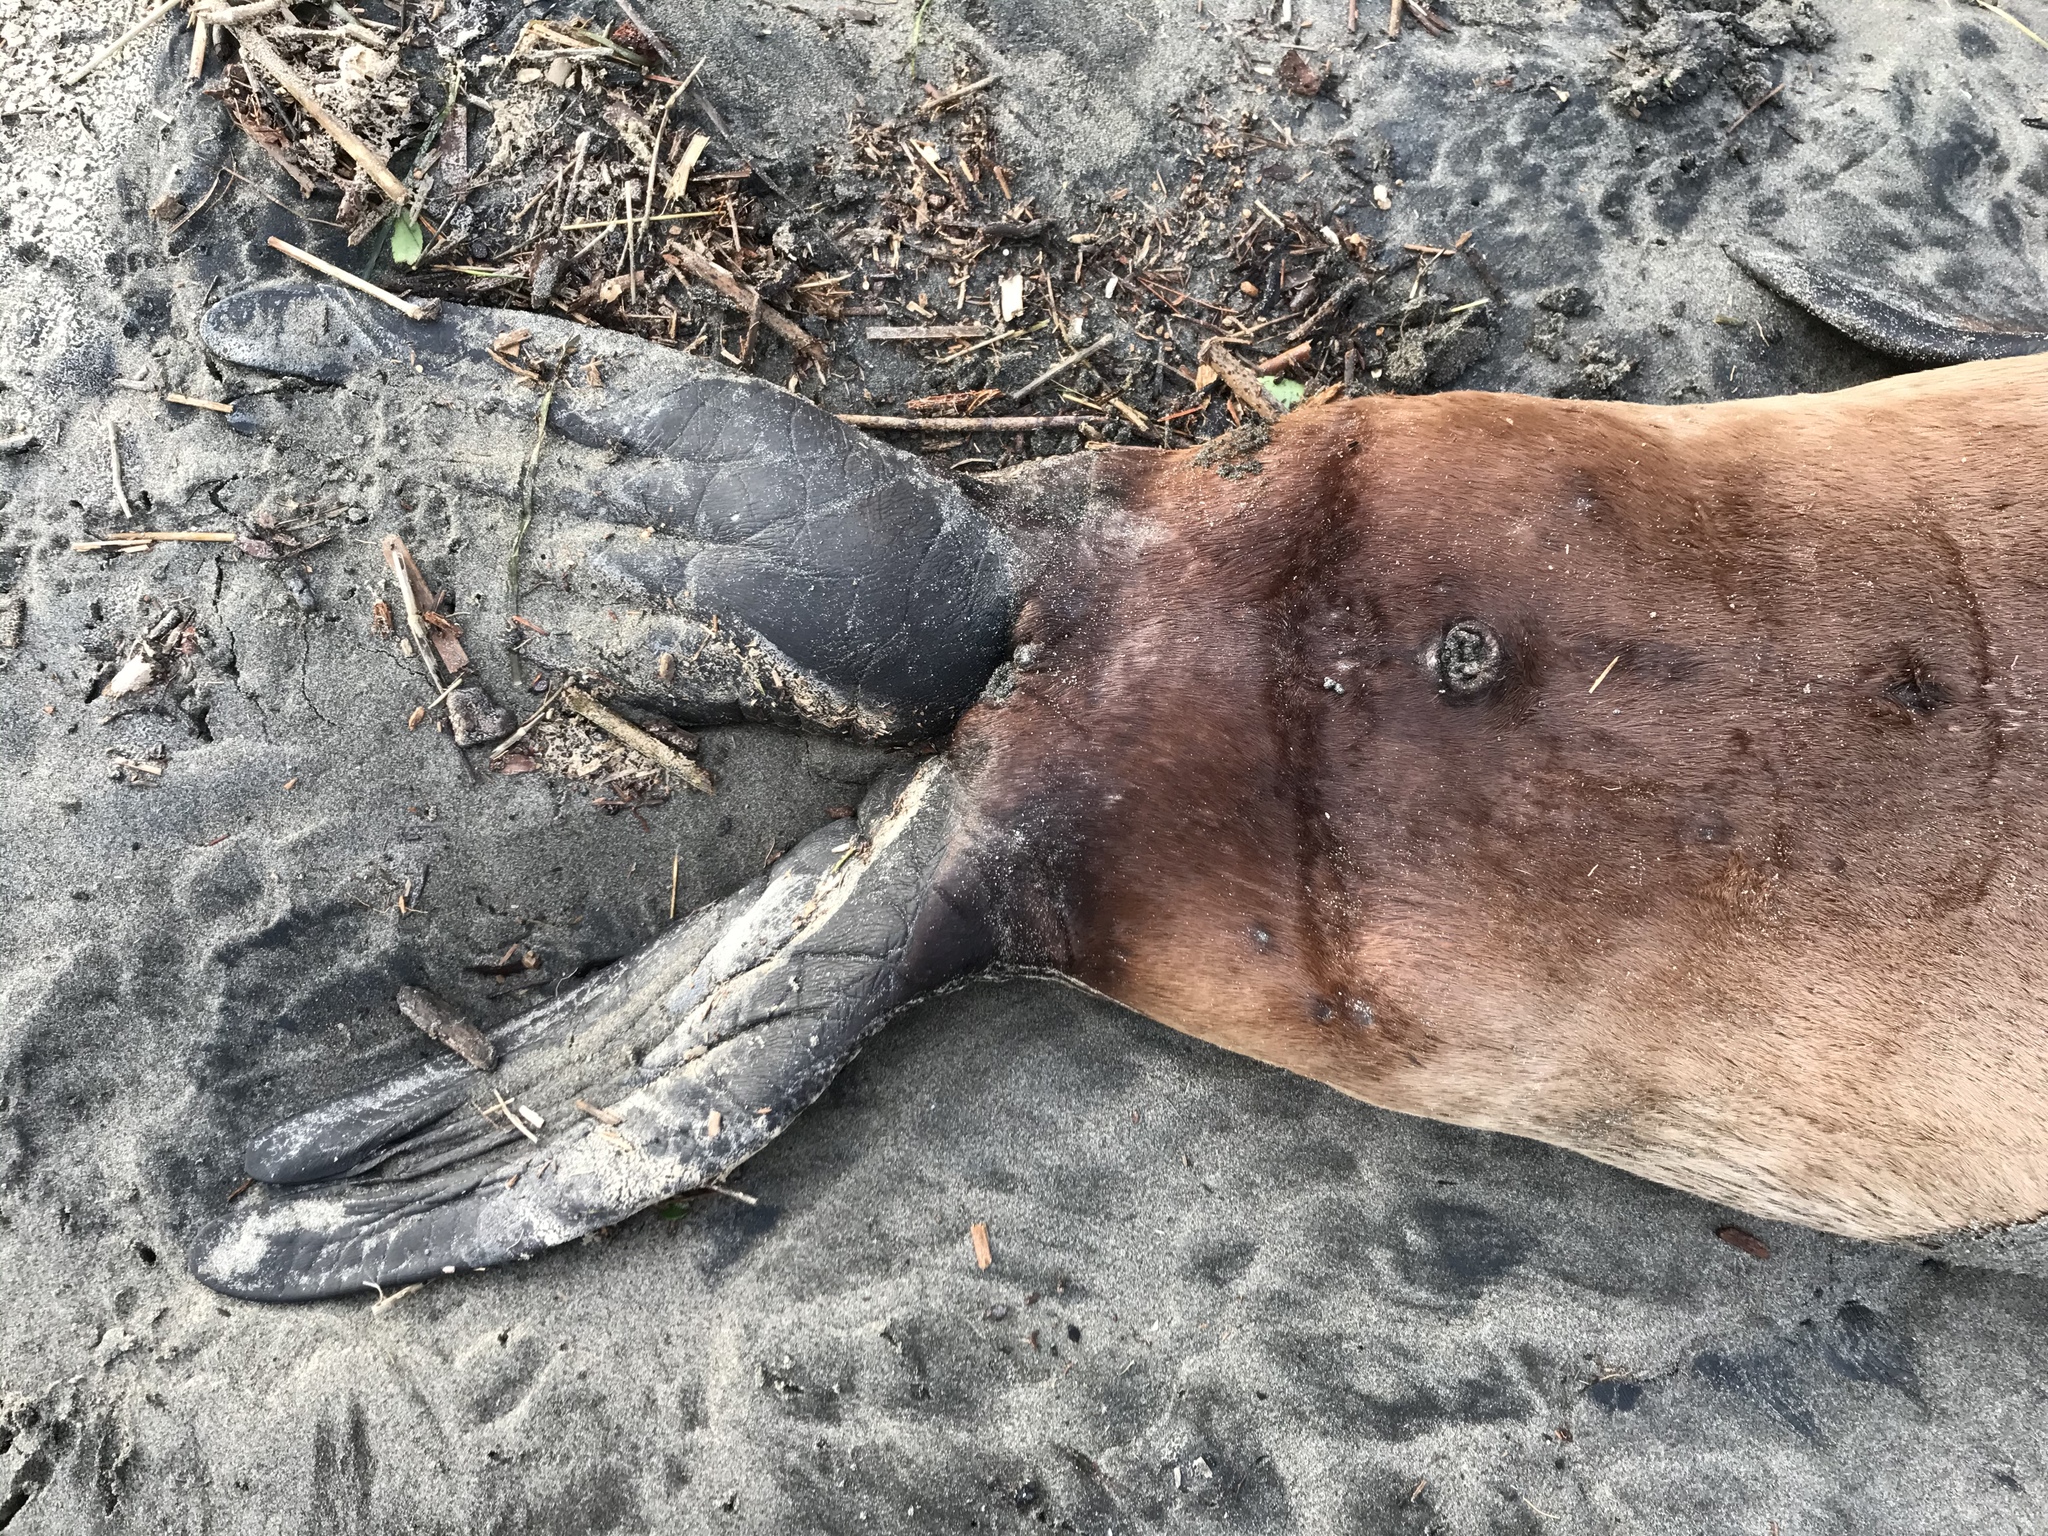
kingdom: Animalia
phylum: Chordata
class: Mammalia
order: Carnivora
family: Otariidae
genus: Eumetopias
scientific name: Eumetopias jubatus
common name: Steller sea lion
